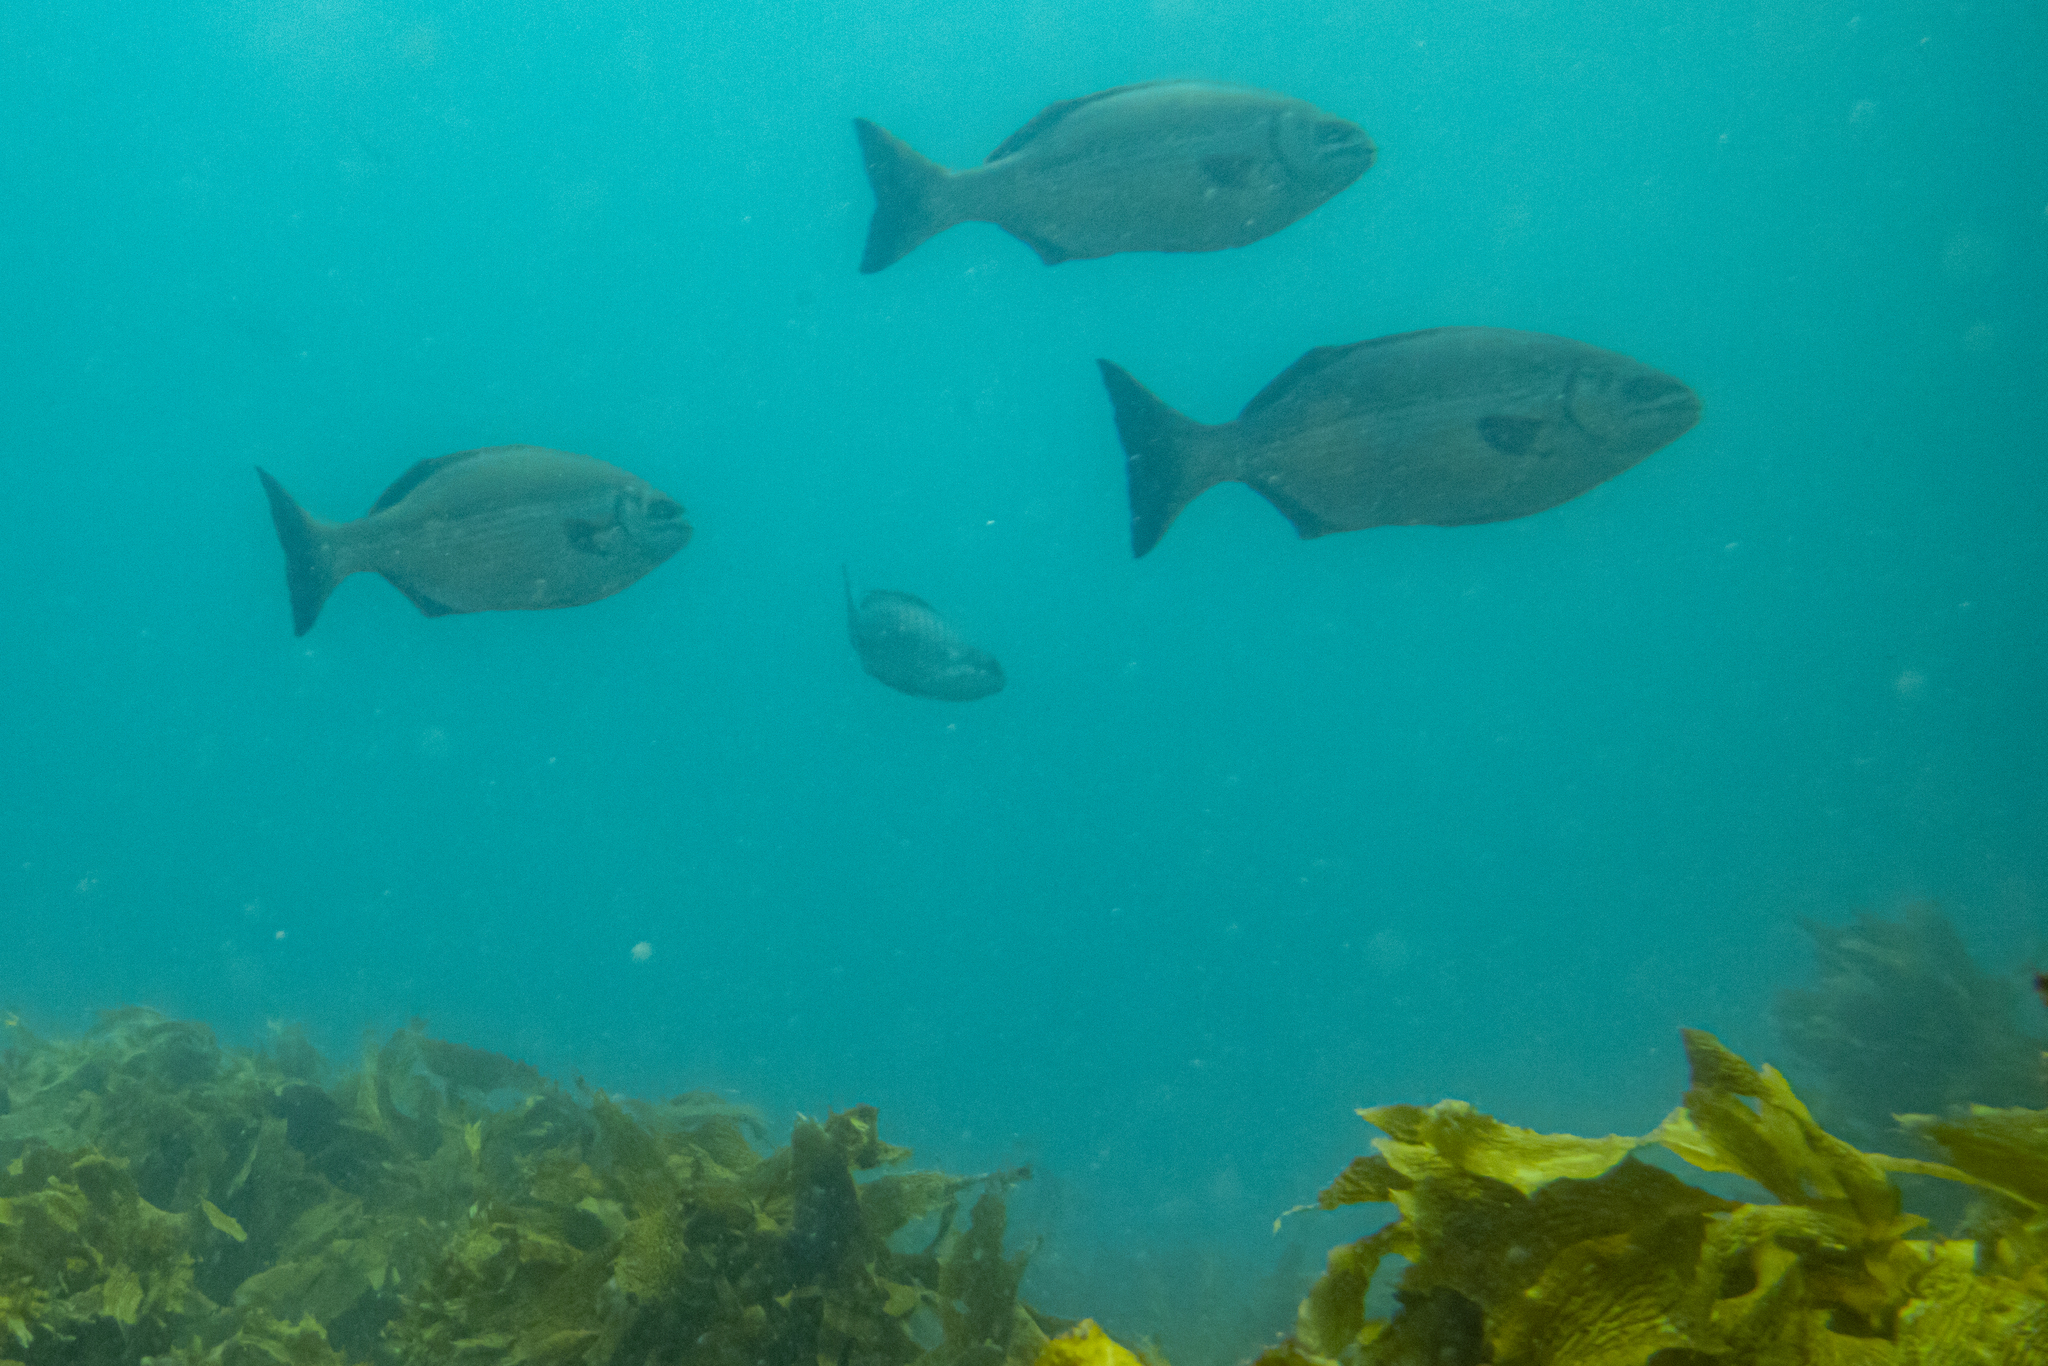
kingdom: Animalia
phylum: Chordata
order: Perciformes
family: Kyphosidae
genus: Kyphosus
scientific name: Kyphosus sydneyanus
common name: Silver drummer
